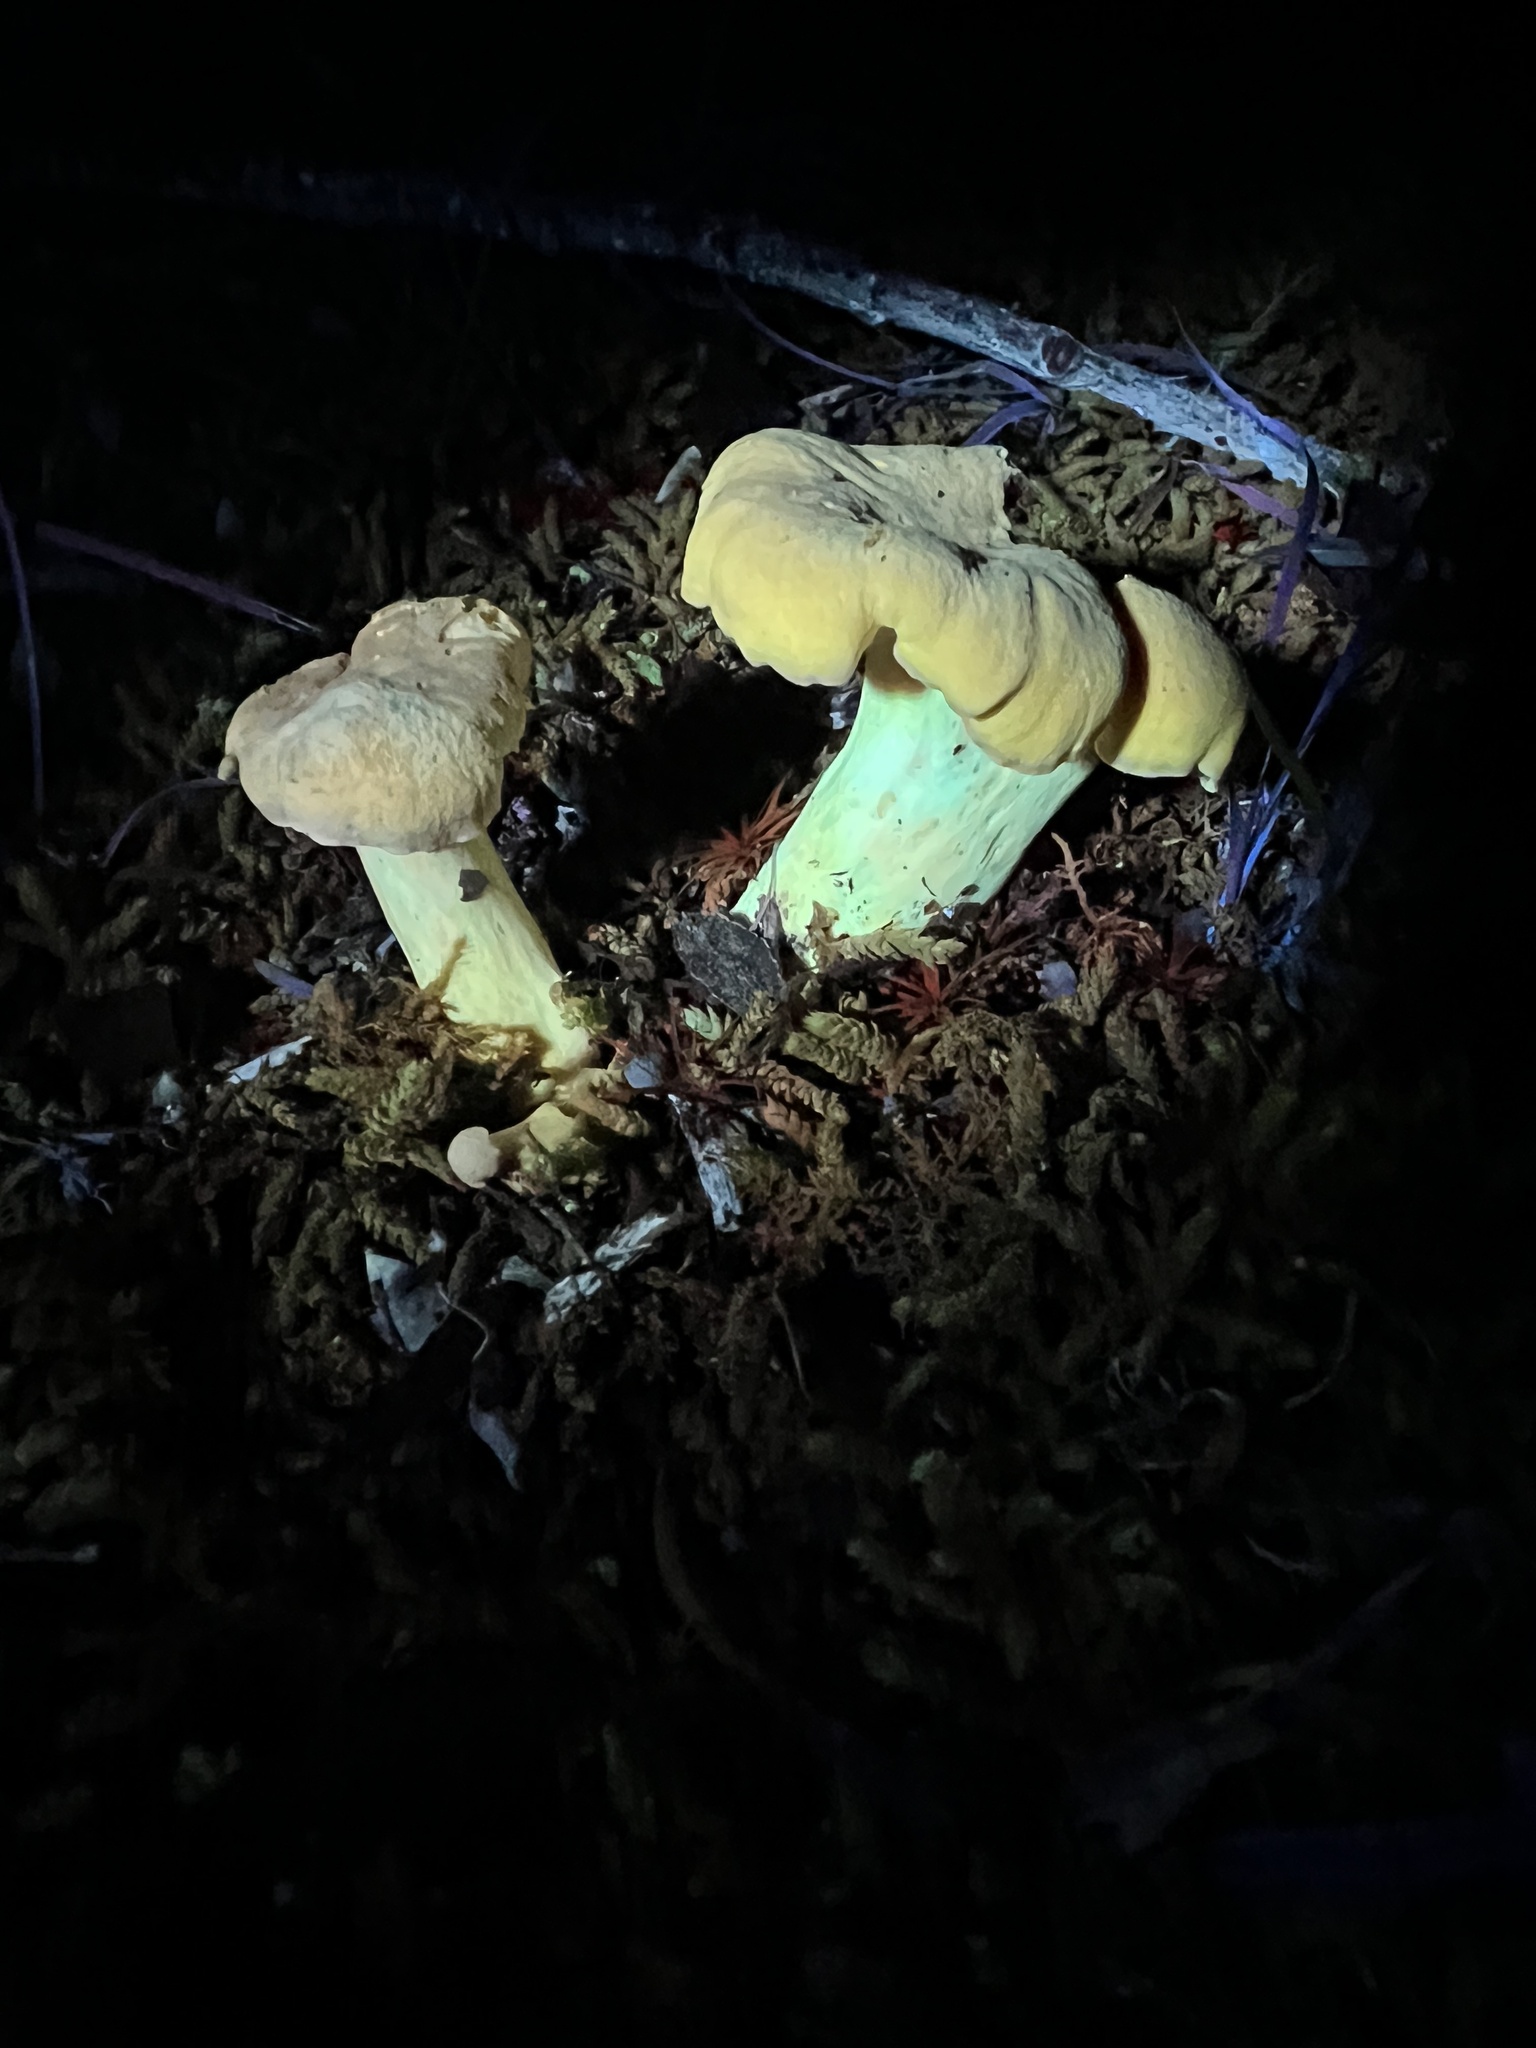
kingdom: Fungi
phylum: Basidiomycota
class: Agaricomycetes
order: Cantharellales
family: Hydnaceae
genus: Cantharellus
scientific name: Cantharellus flavolateritius
